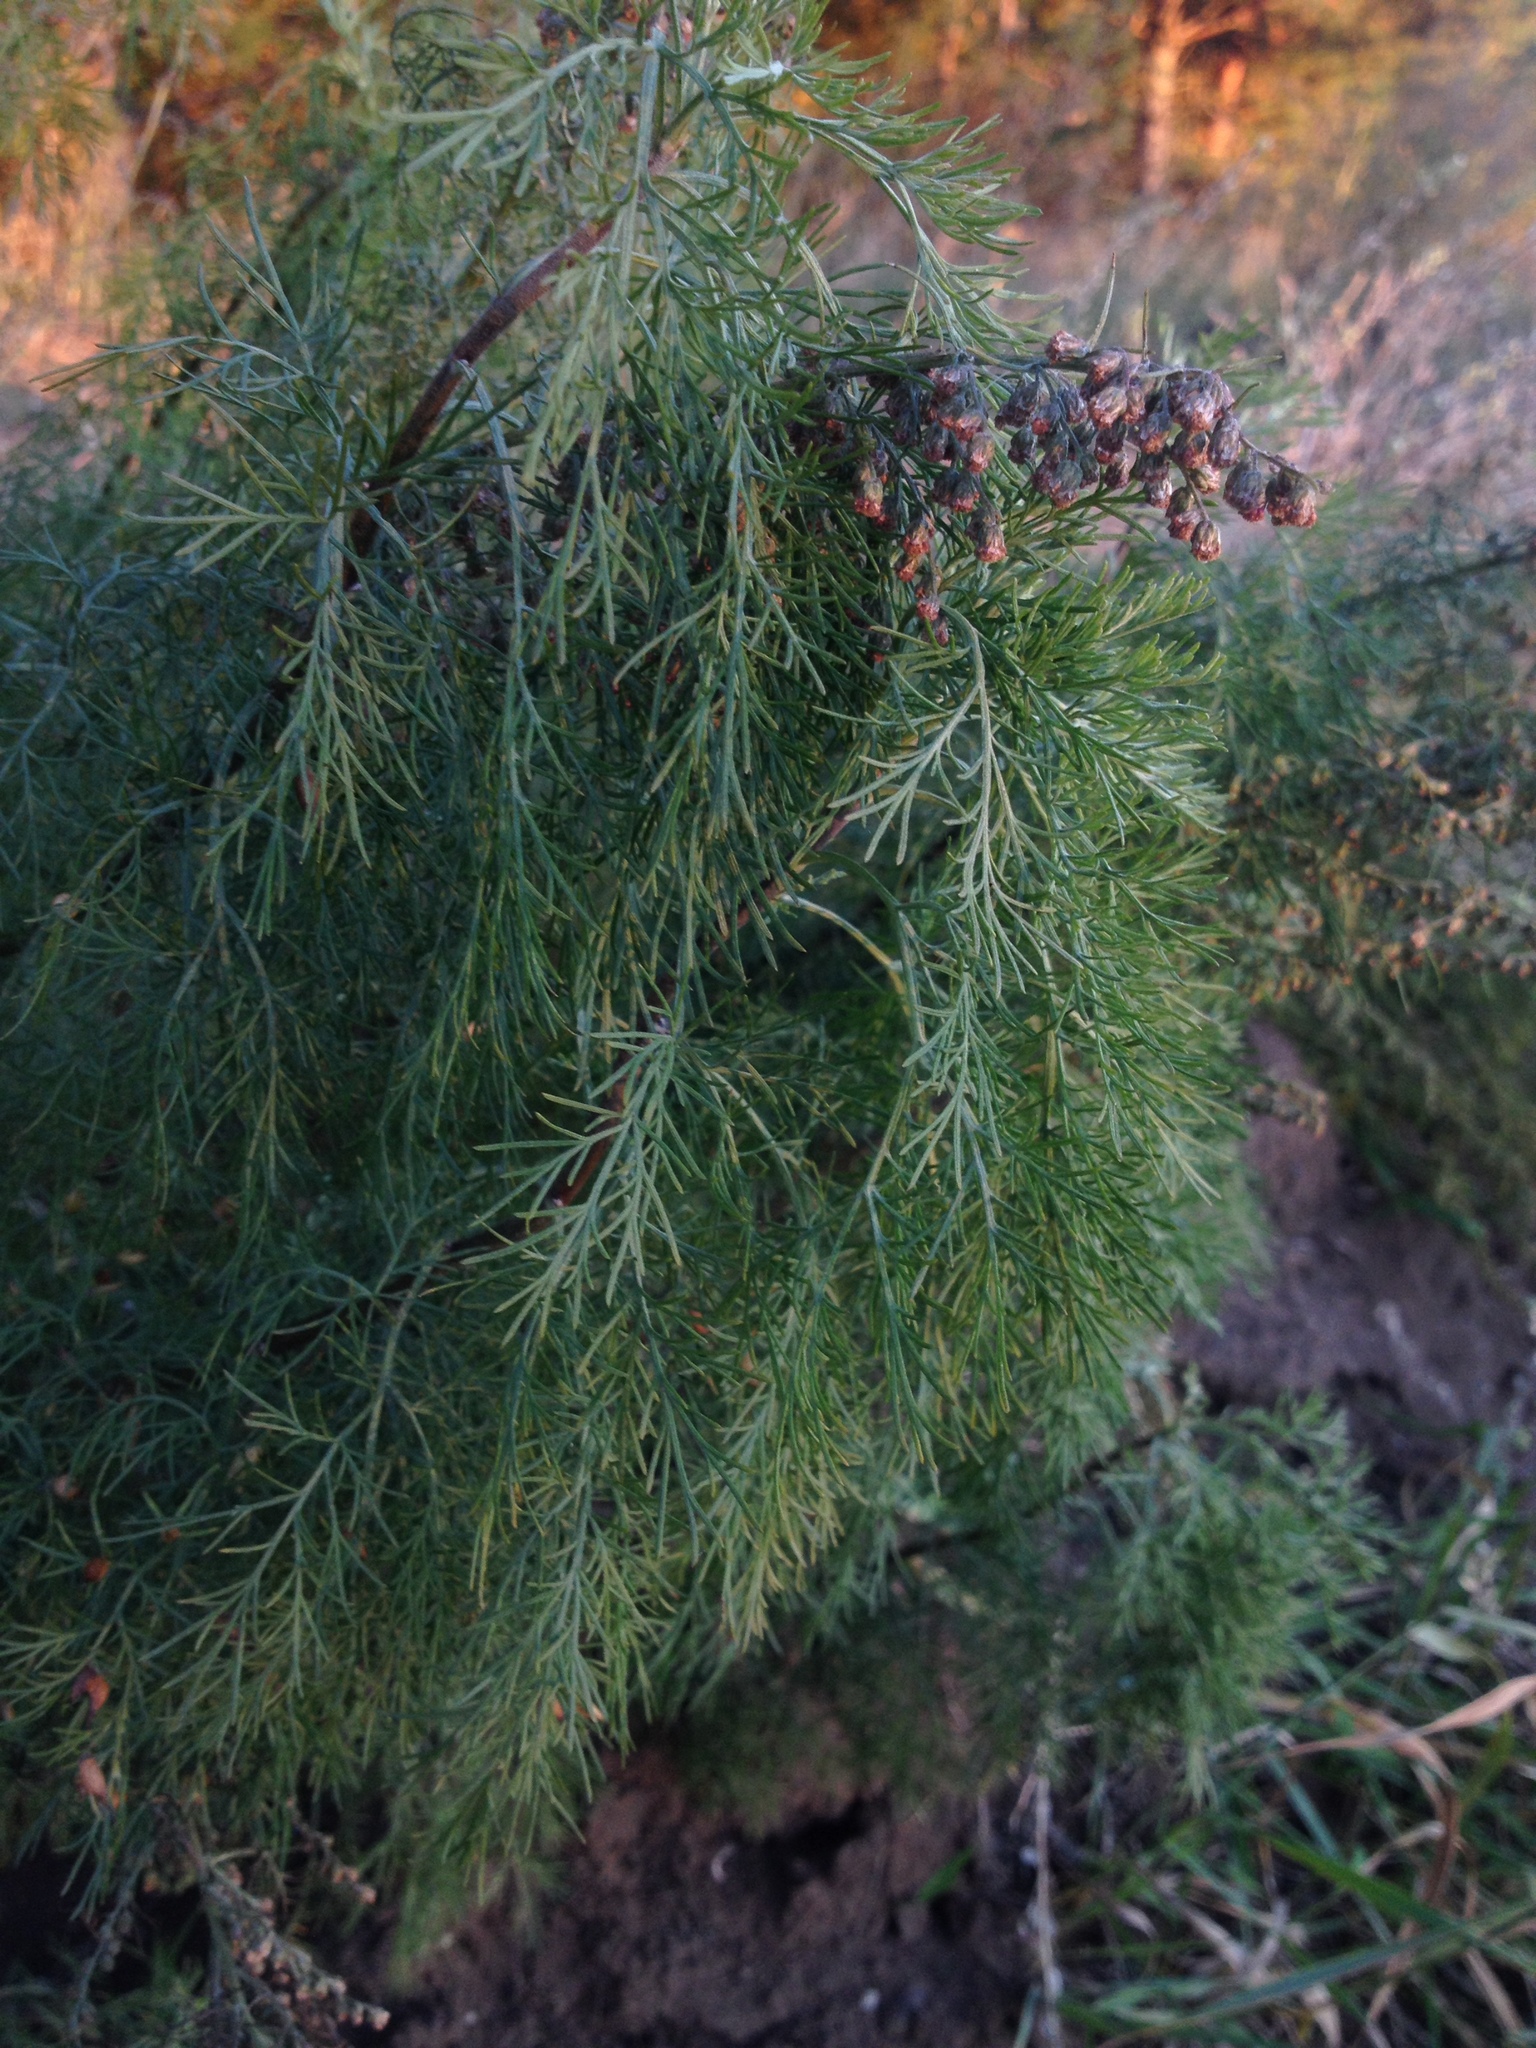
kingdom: Plantae
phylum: Tracheophyta
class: Magnoliopsida
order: Asterales
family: Asteraceae
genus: Artemisia
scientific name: Artemisia abrotanum
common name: Southernwood
